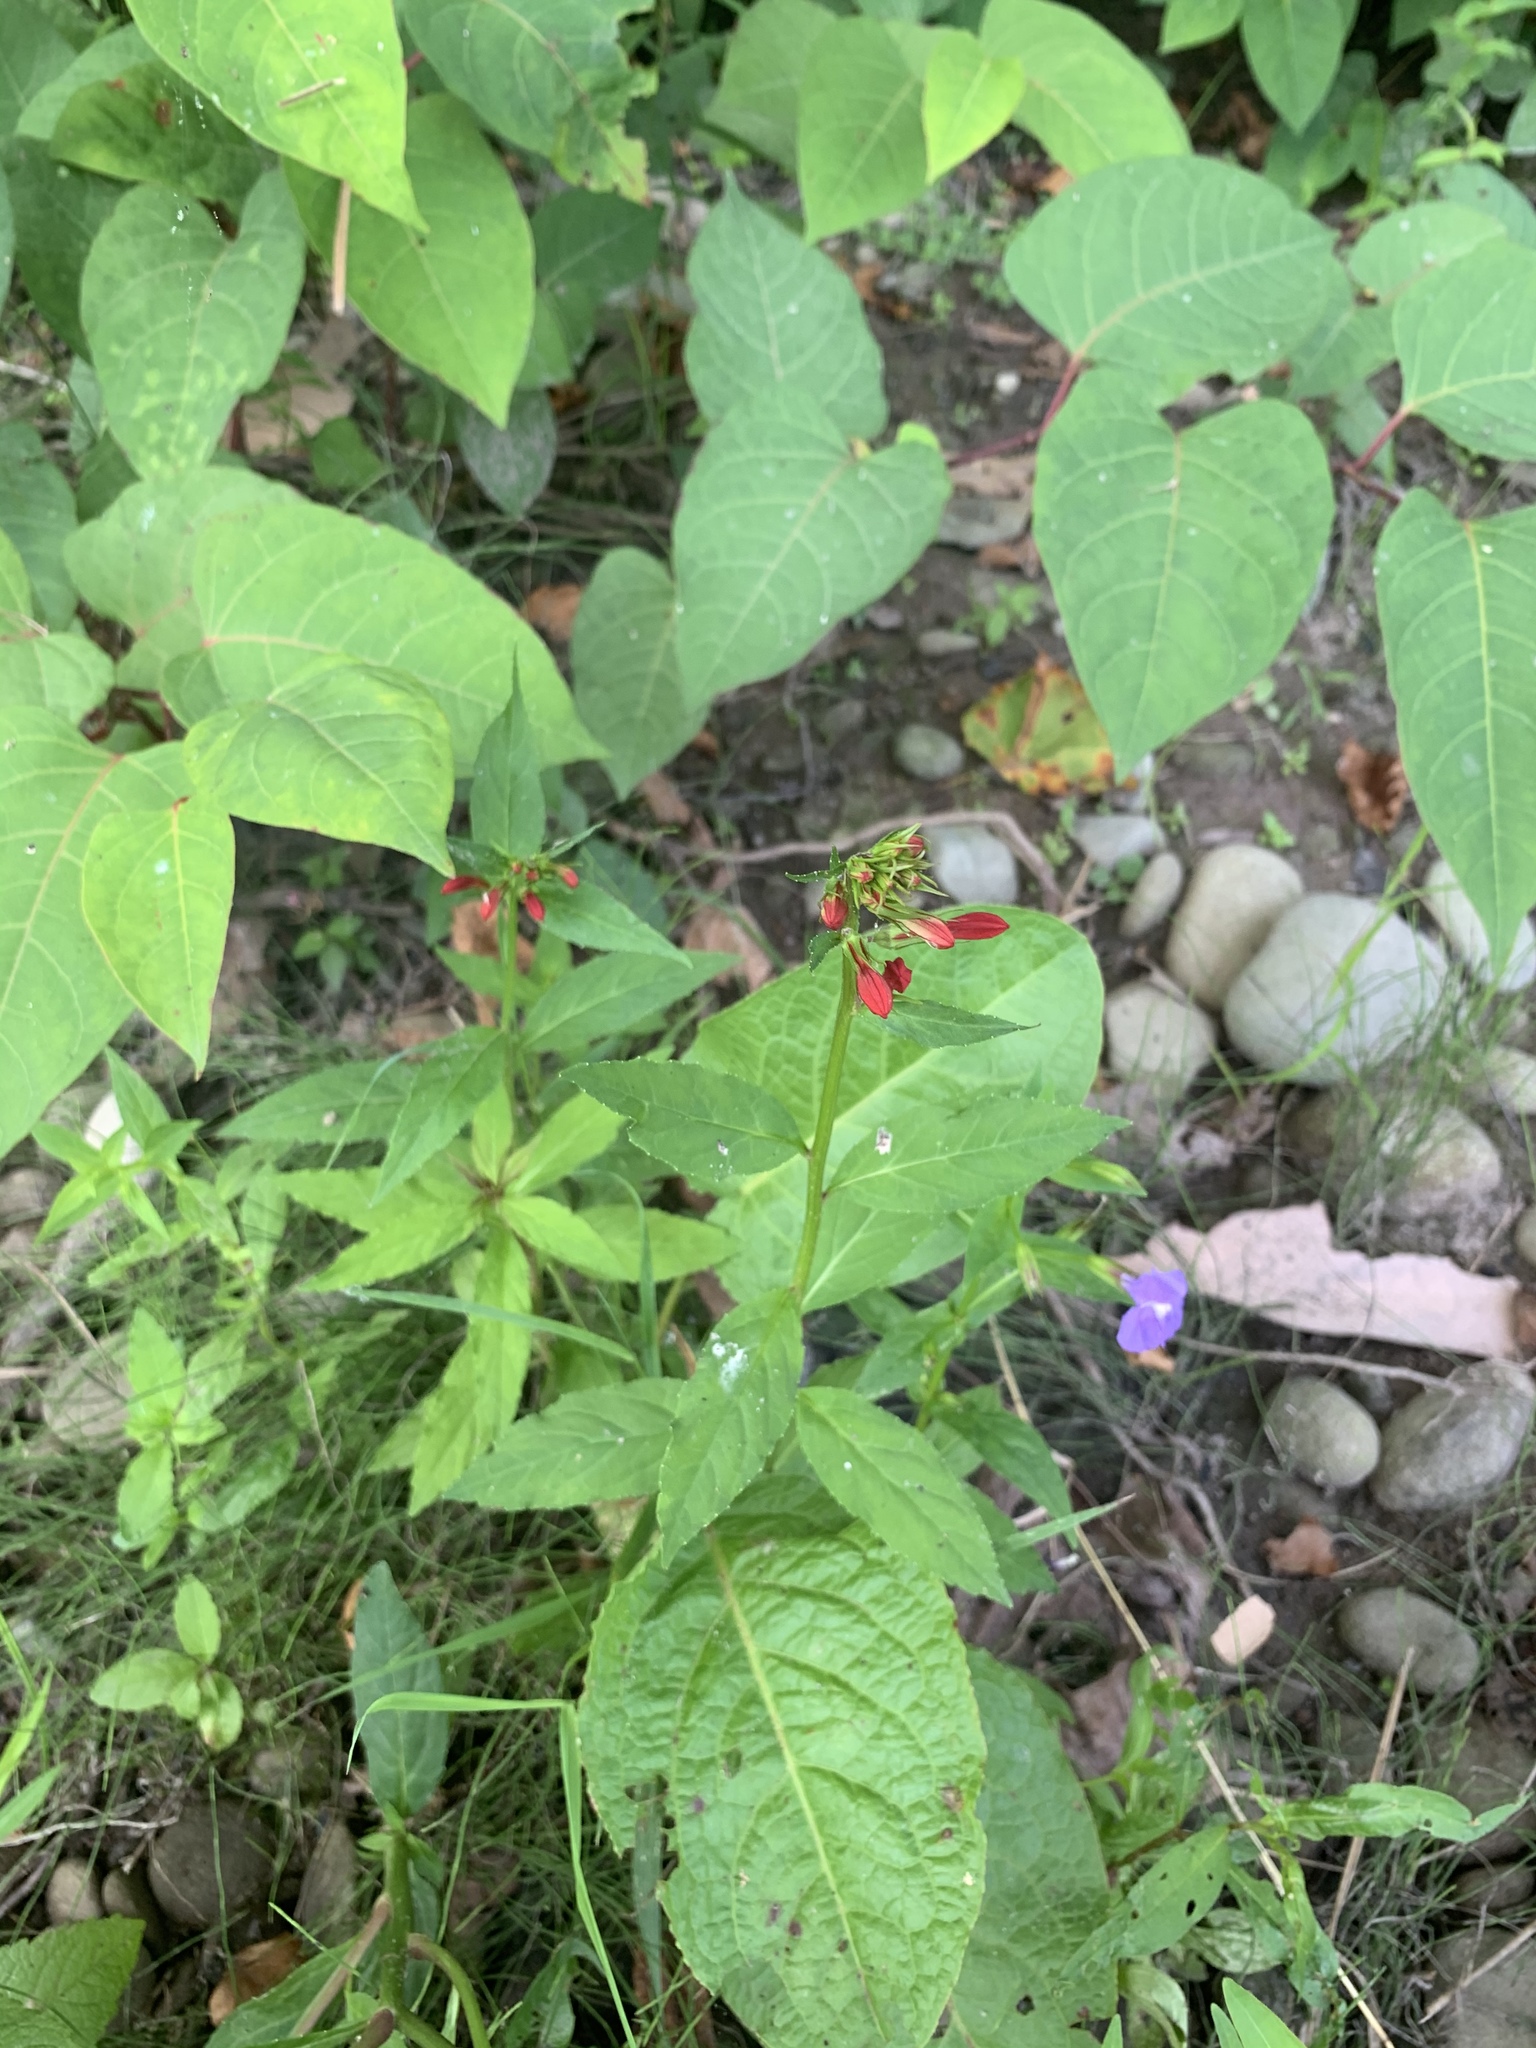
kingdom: Plantae
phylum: Tracheophyta
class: Magnoliopsida
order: Asterales
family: Campanulaceae
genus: Lobelia
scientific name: Lobelia cardinalis
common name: Cardinal flower
